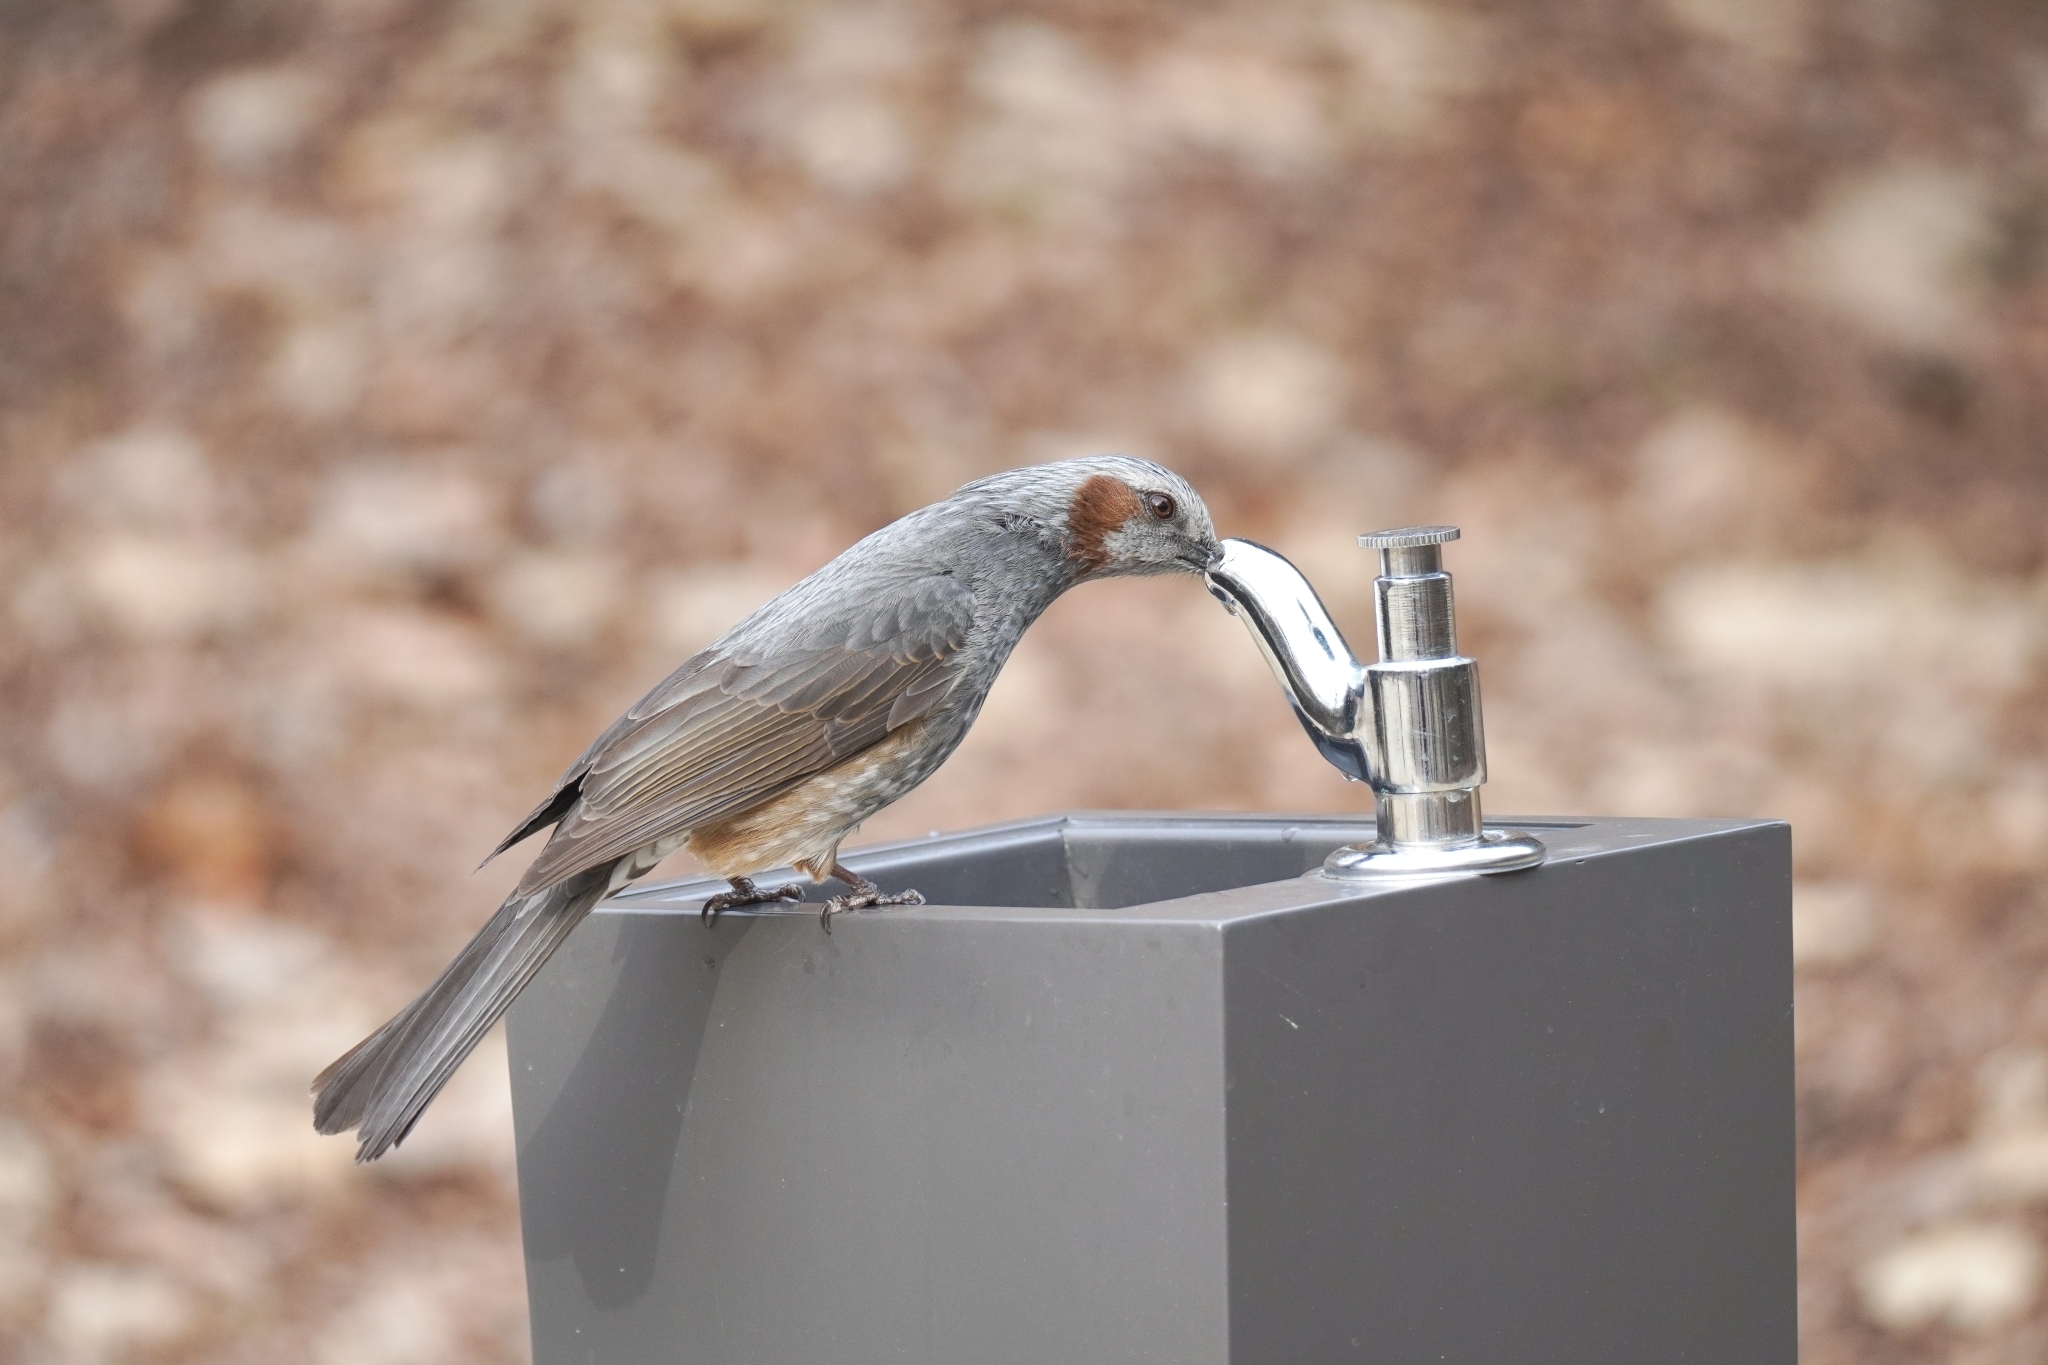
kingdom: Animalia
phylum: Chordata
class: Aves
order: Passeriformes
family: Pycnonotidae
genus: Hypsipetes
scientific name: Hypsipetes amaurotis
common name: Brown-eared bulbul
